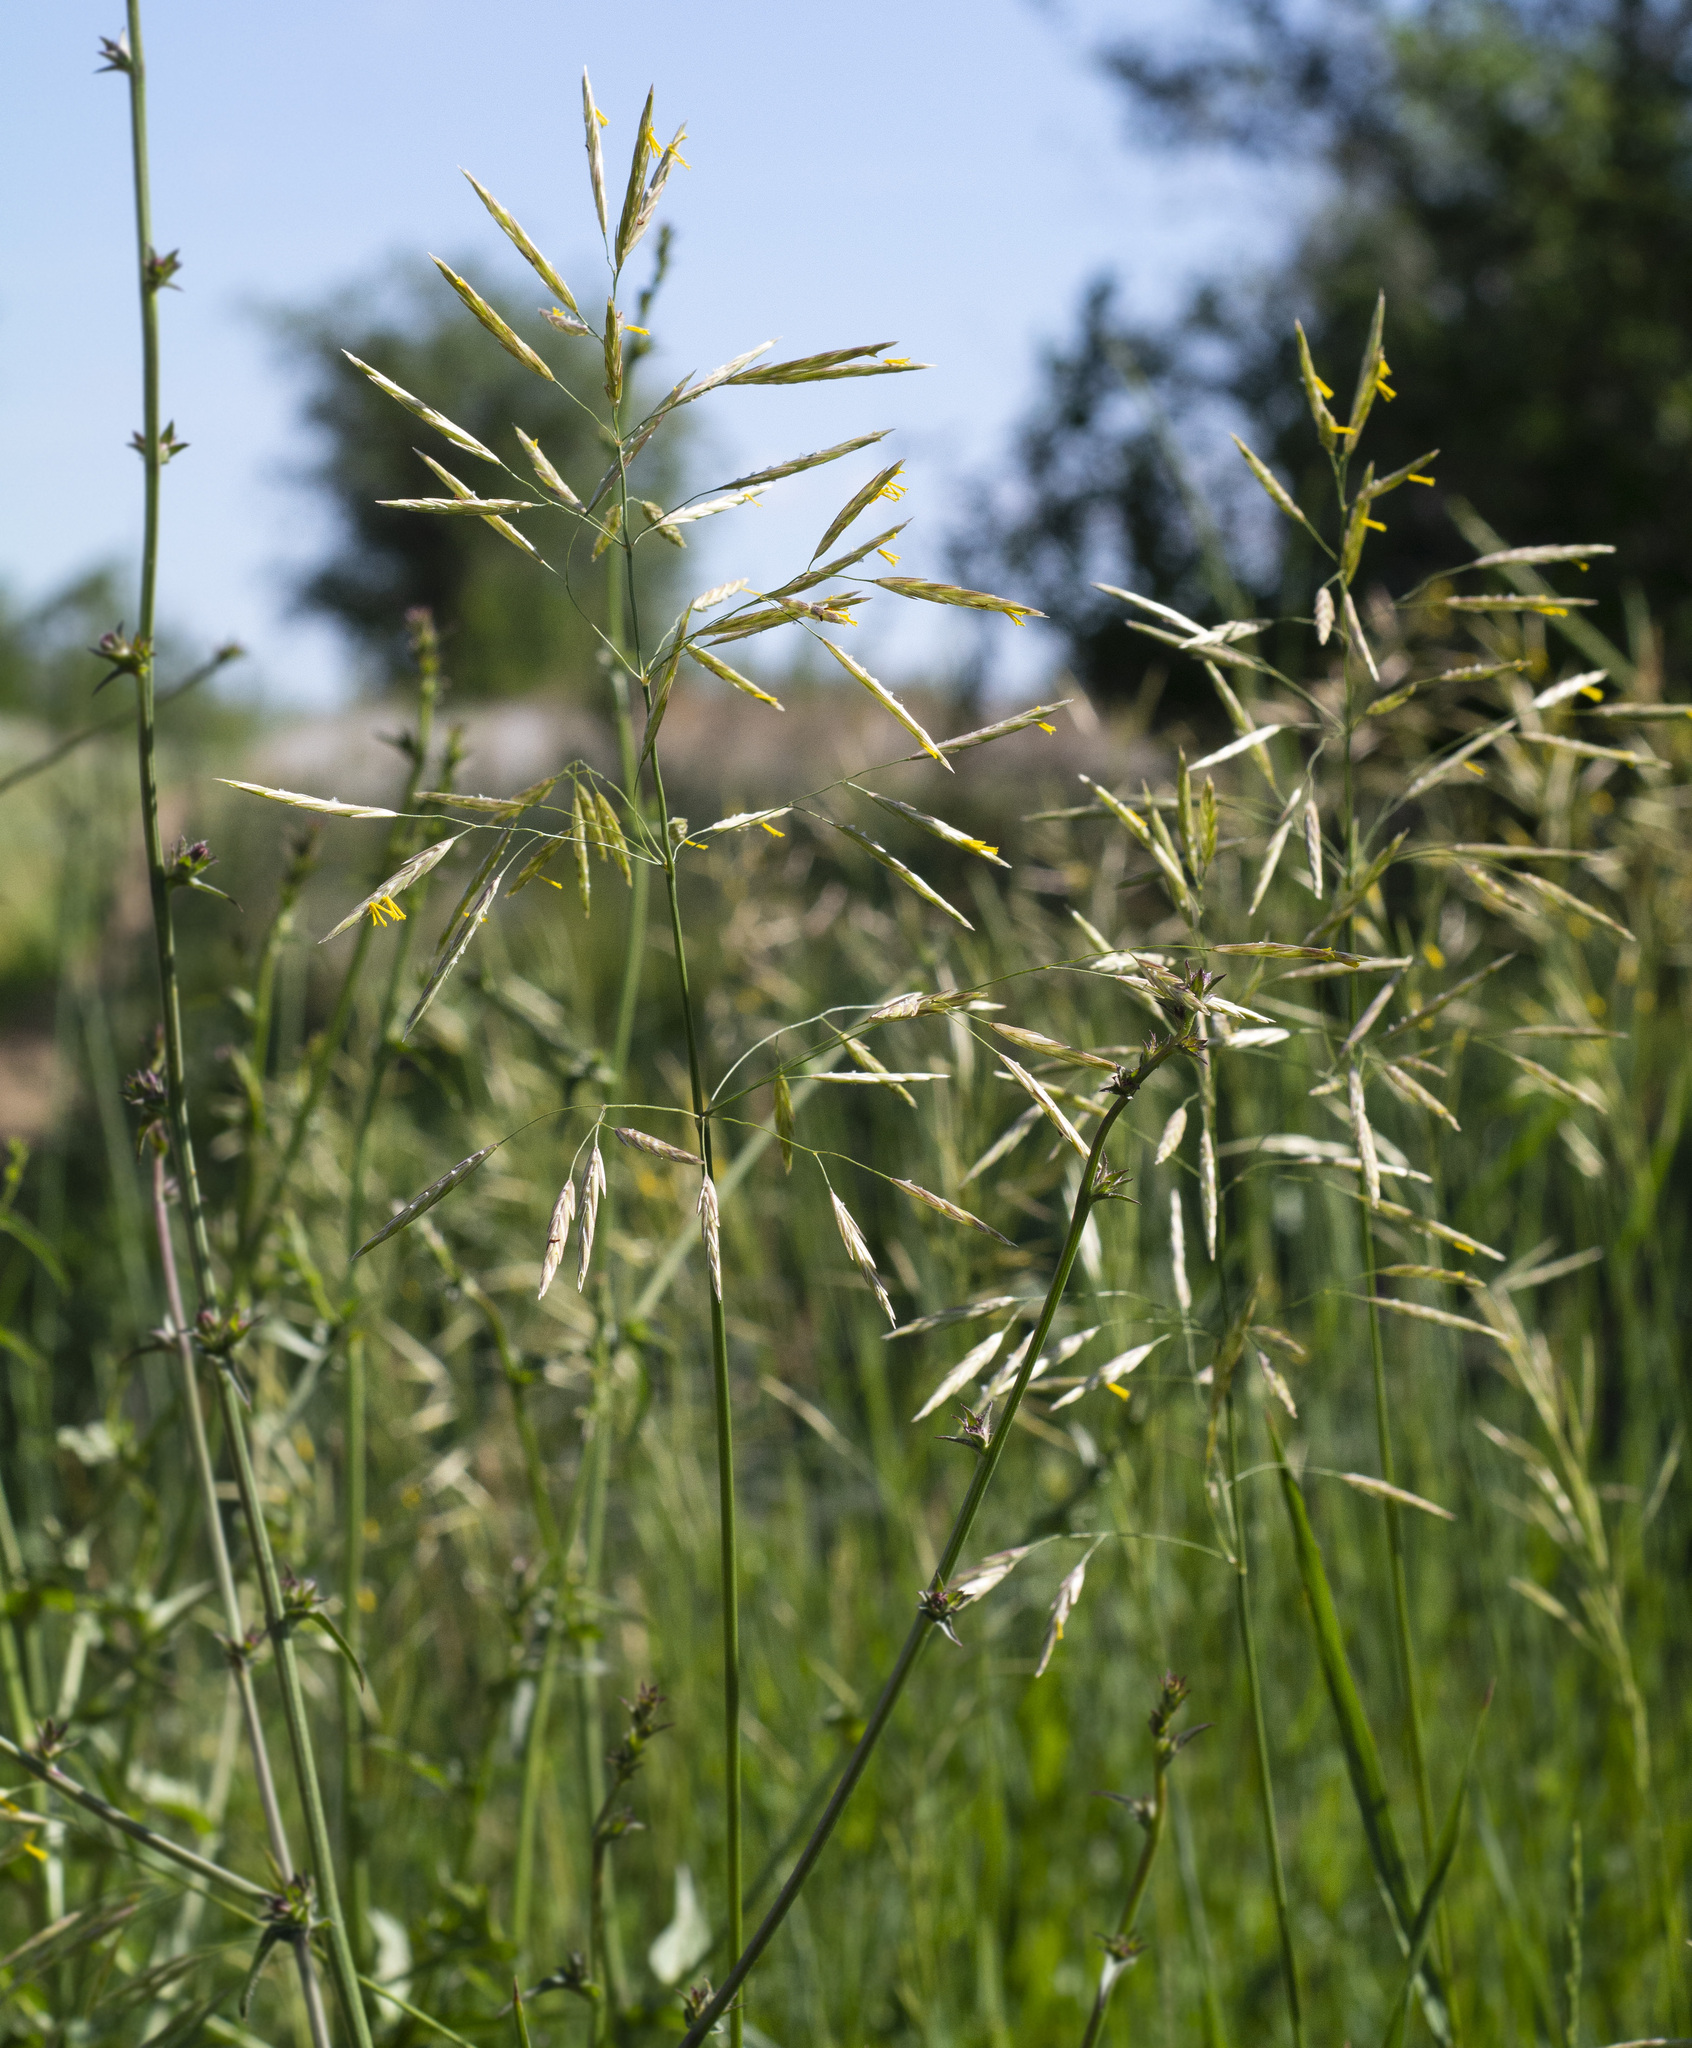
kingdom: Plantae
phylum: Tracheophyta
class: Liliopsida
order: Poales
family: Poaceae
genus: Bromus
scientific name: Bromus inermis
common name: Smooth brome
